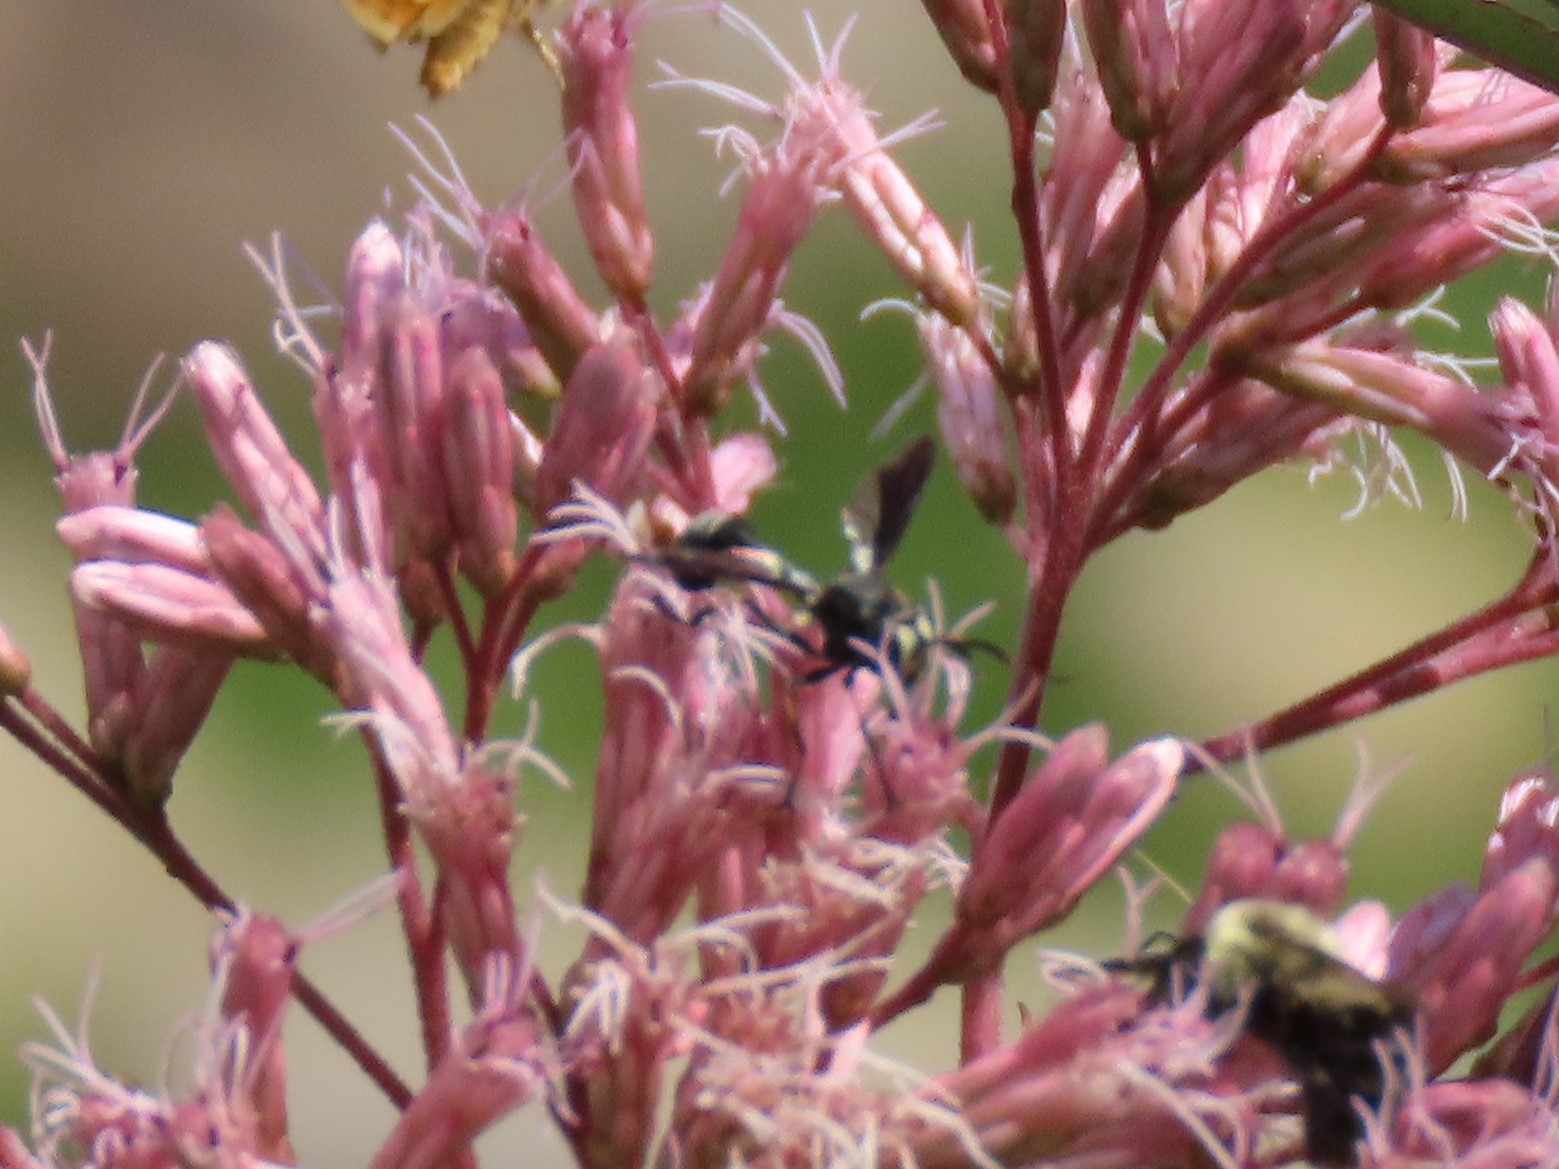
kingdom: Animalia
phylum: Arthropoda
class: Insecta
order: Diptera
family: Conopidae
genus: Physocephala
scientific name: Physocephala tibialis
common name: Common eastern physocephala
